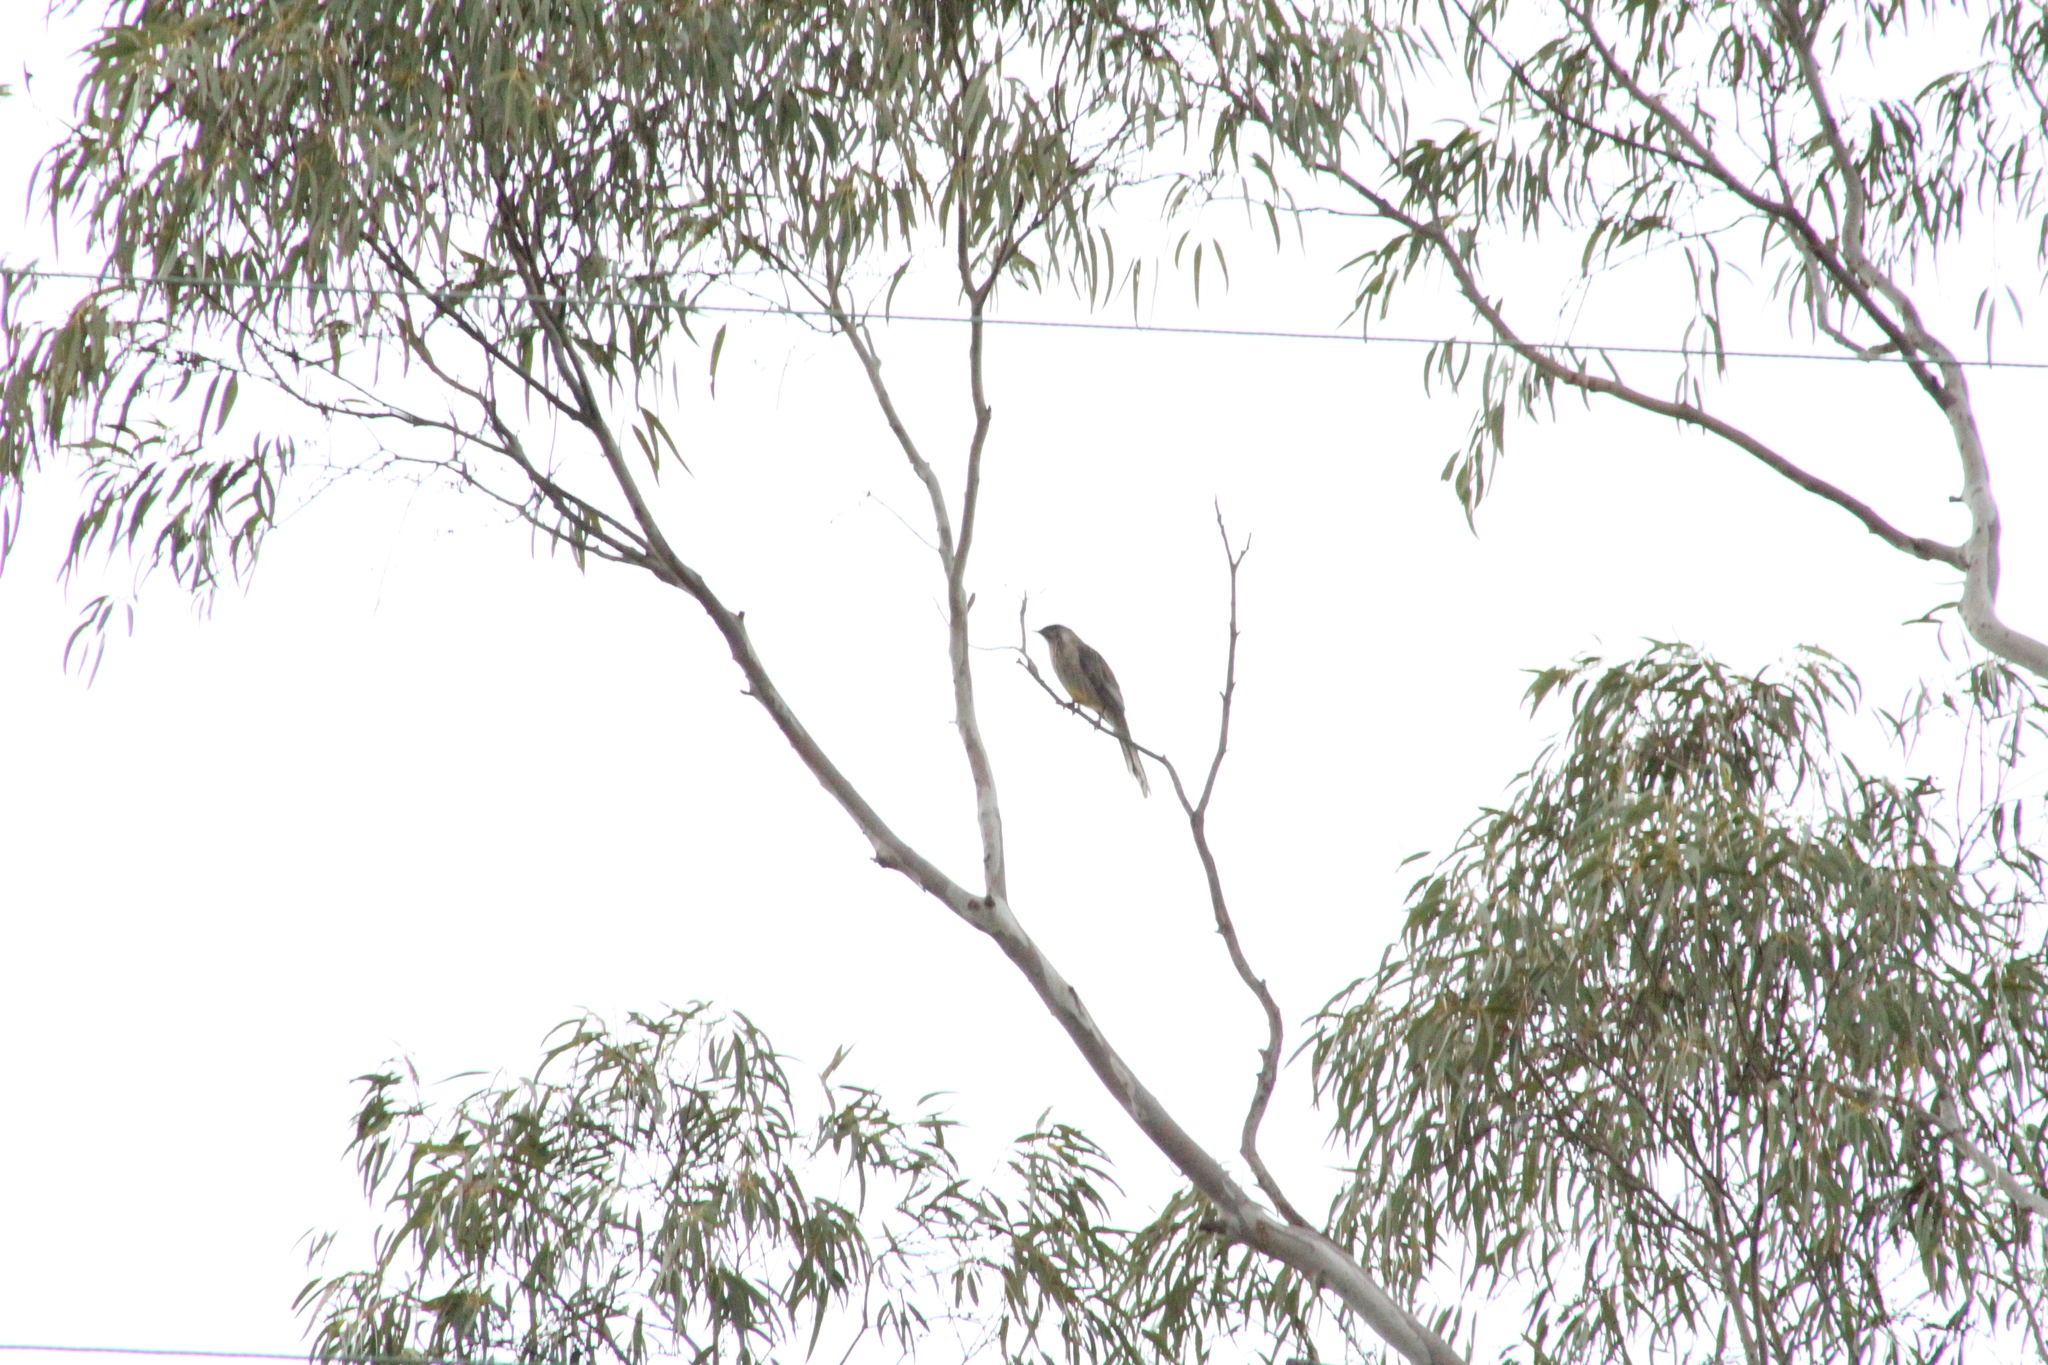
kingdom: Animalia
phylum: Chordata
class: Aves
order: Passeriformes
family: Meliphagidae
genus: Anthochaera
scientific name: Anthochaera carunculata
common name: Red wattlebird
